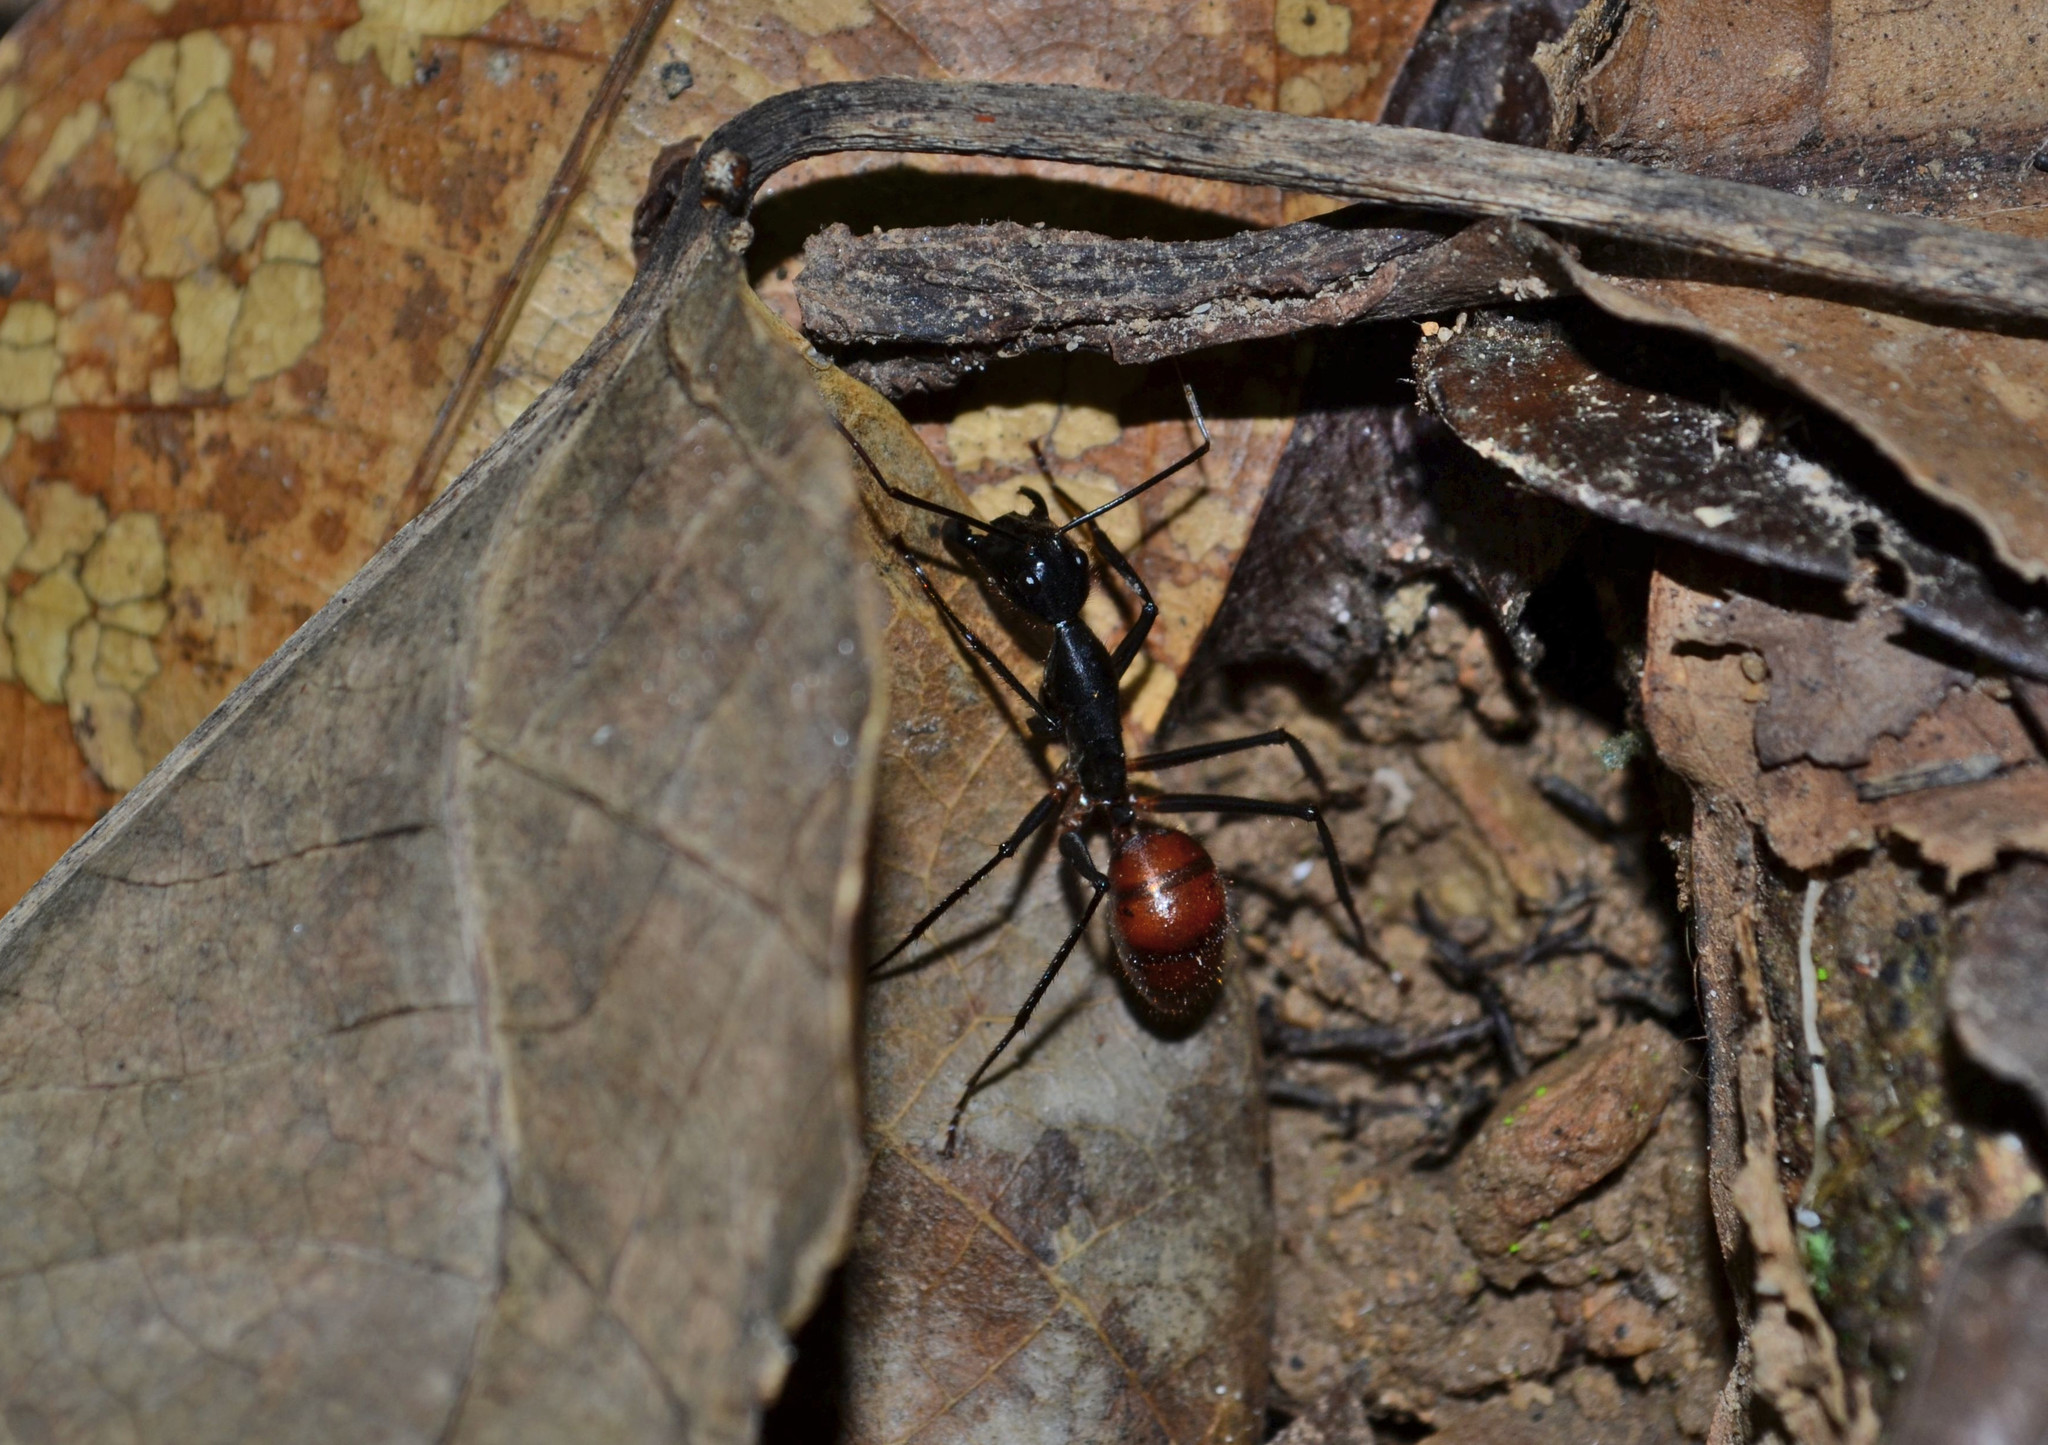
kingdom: Animalia
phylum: Arthropoda
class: Insecta
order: Hymenoptera
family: Formicidae
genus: Dinomyrmex
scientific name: Dinomyrmex
